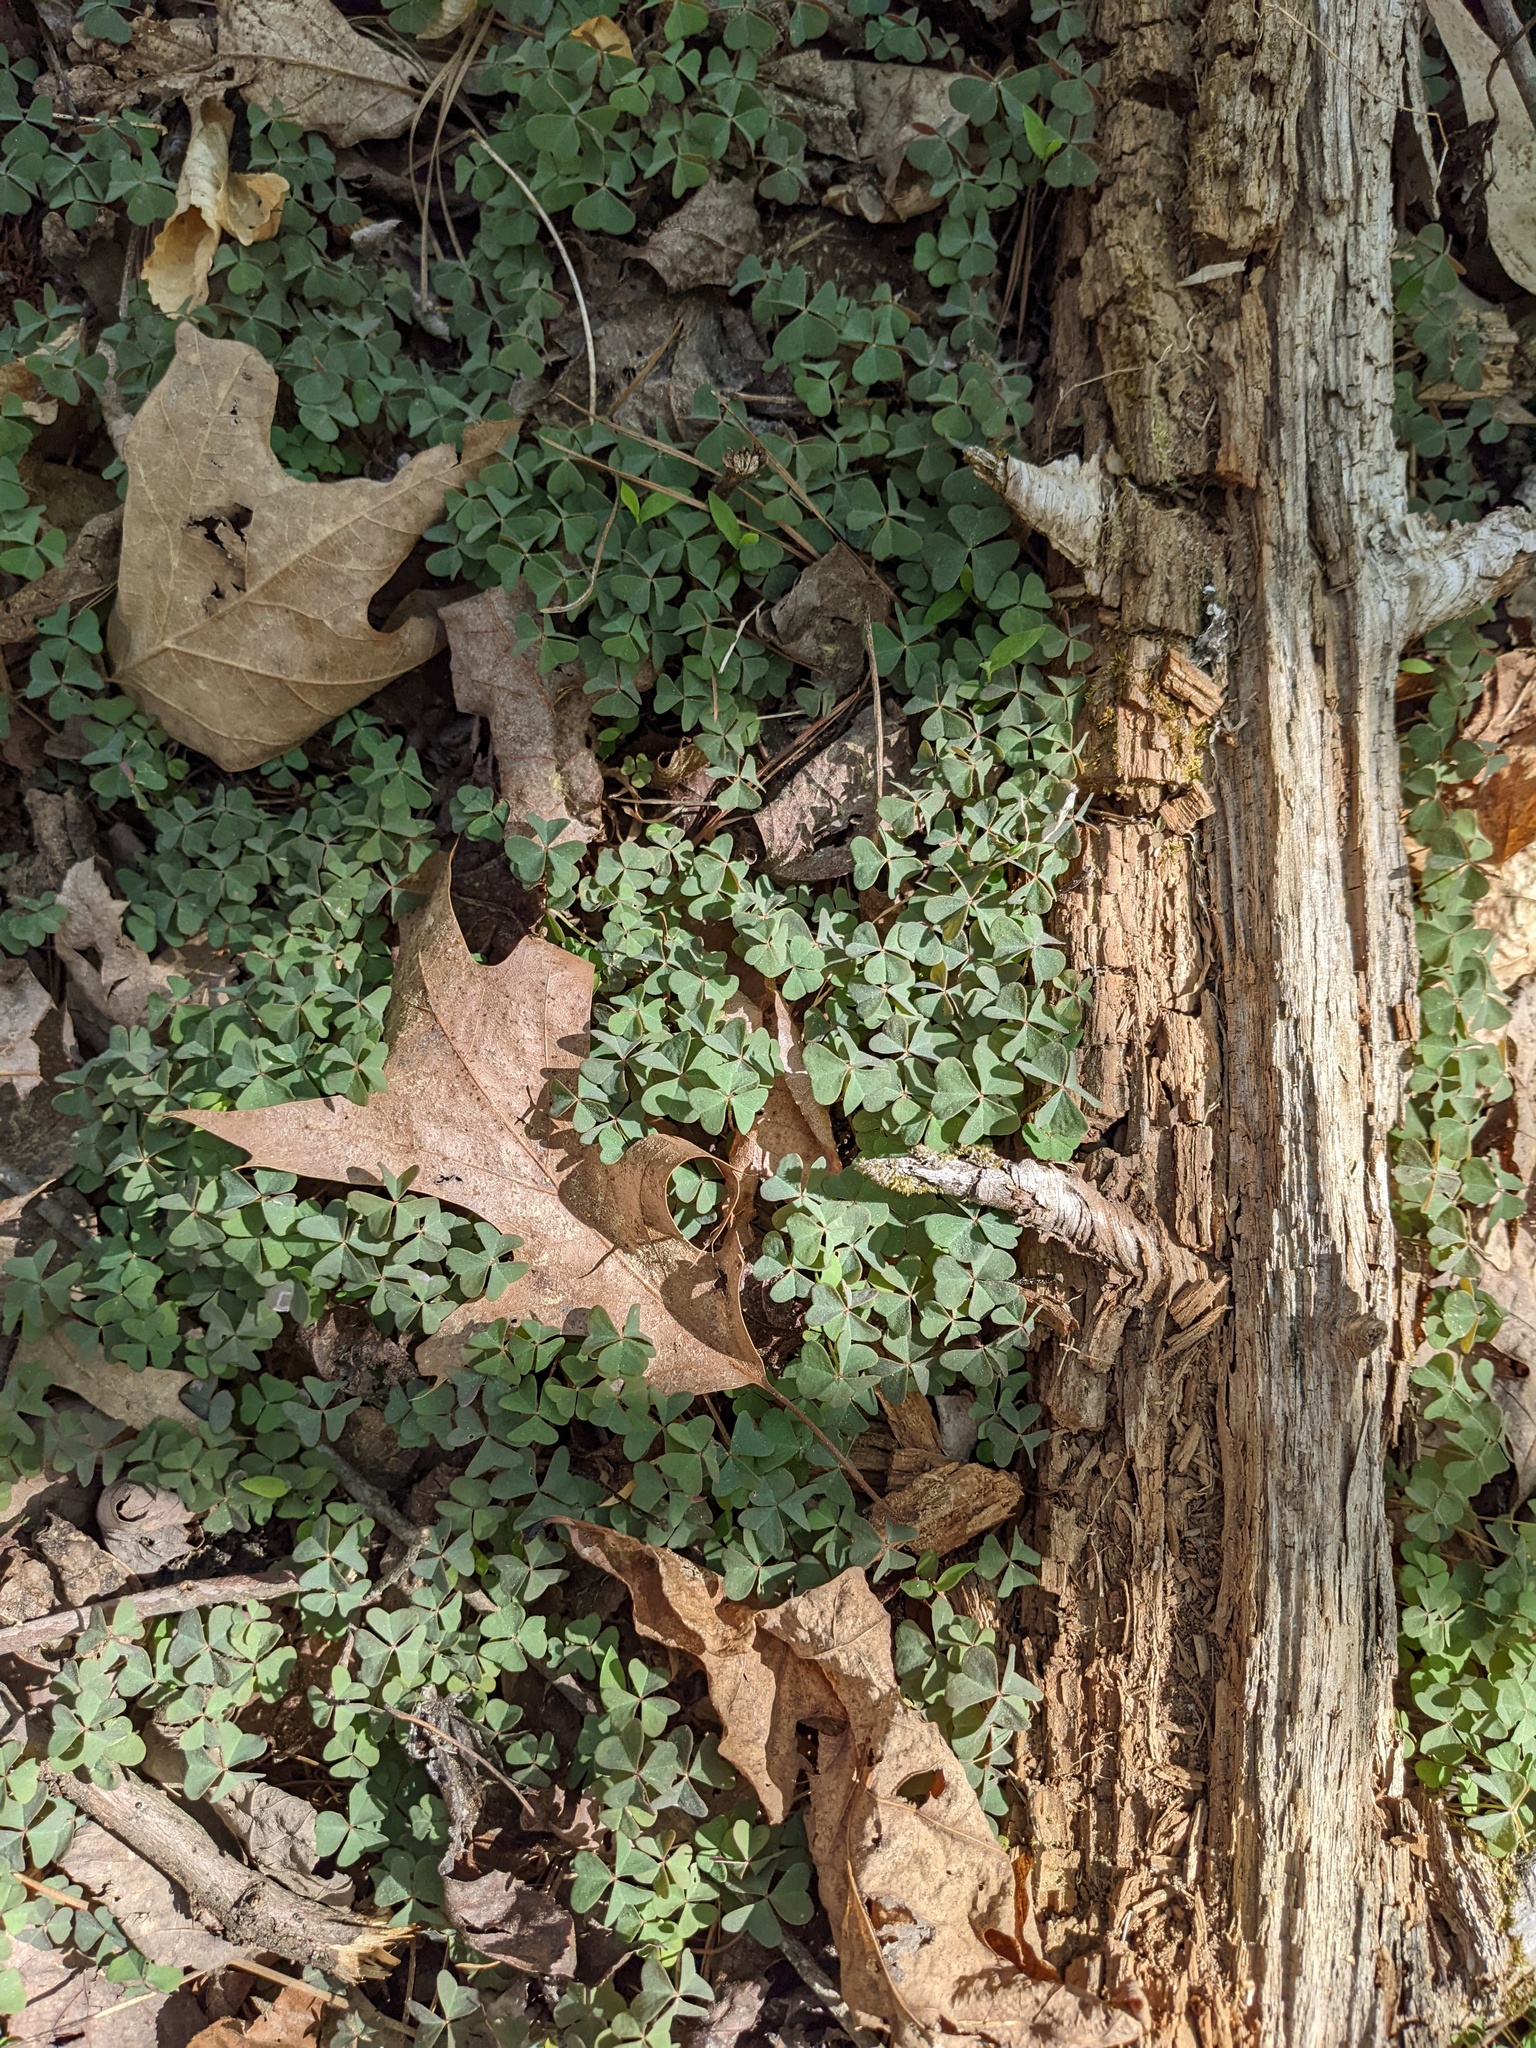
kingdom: Plantae
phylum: Tracheophyta
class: Magnoliopsida
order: Oxalidales
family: Oxalidaceae
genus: Oxalis
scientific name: Oxalis violacea
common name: Violet wood-sorrel
